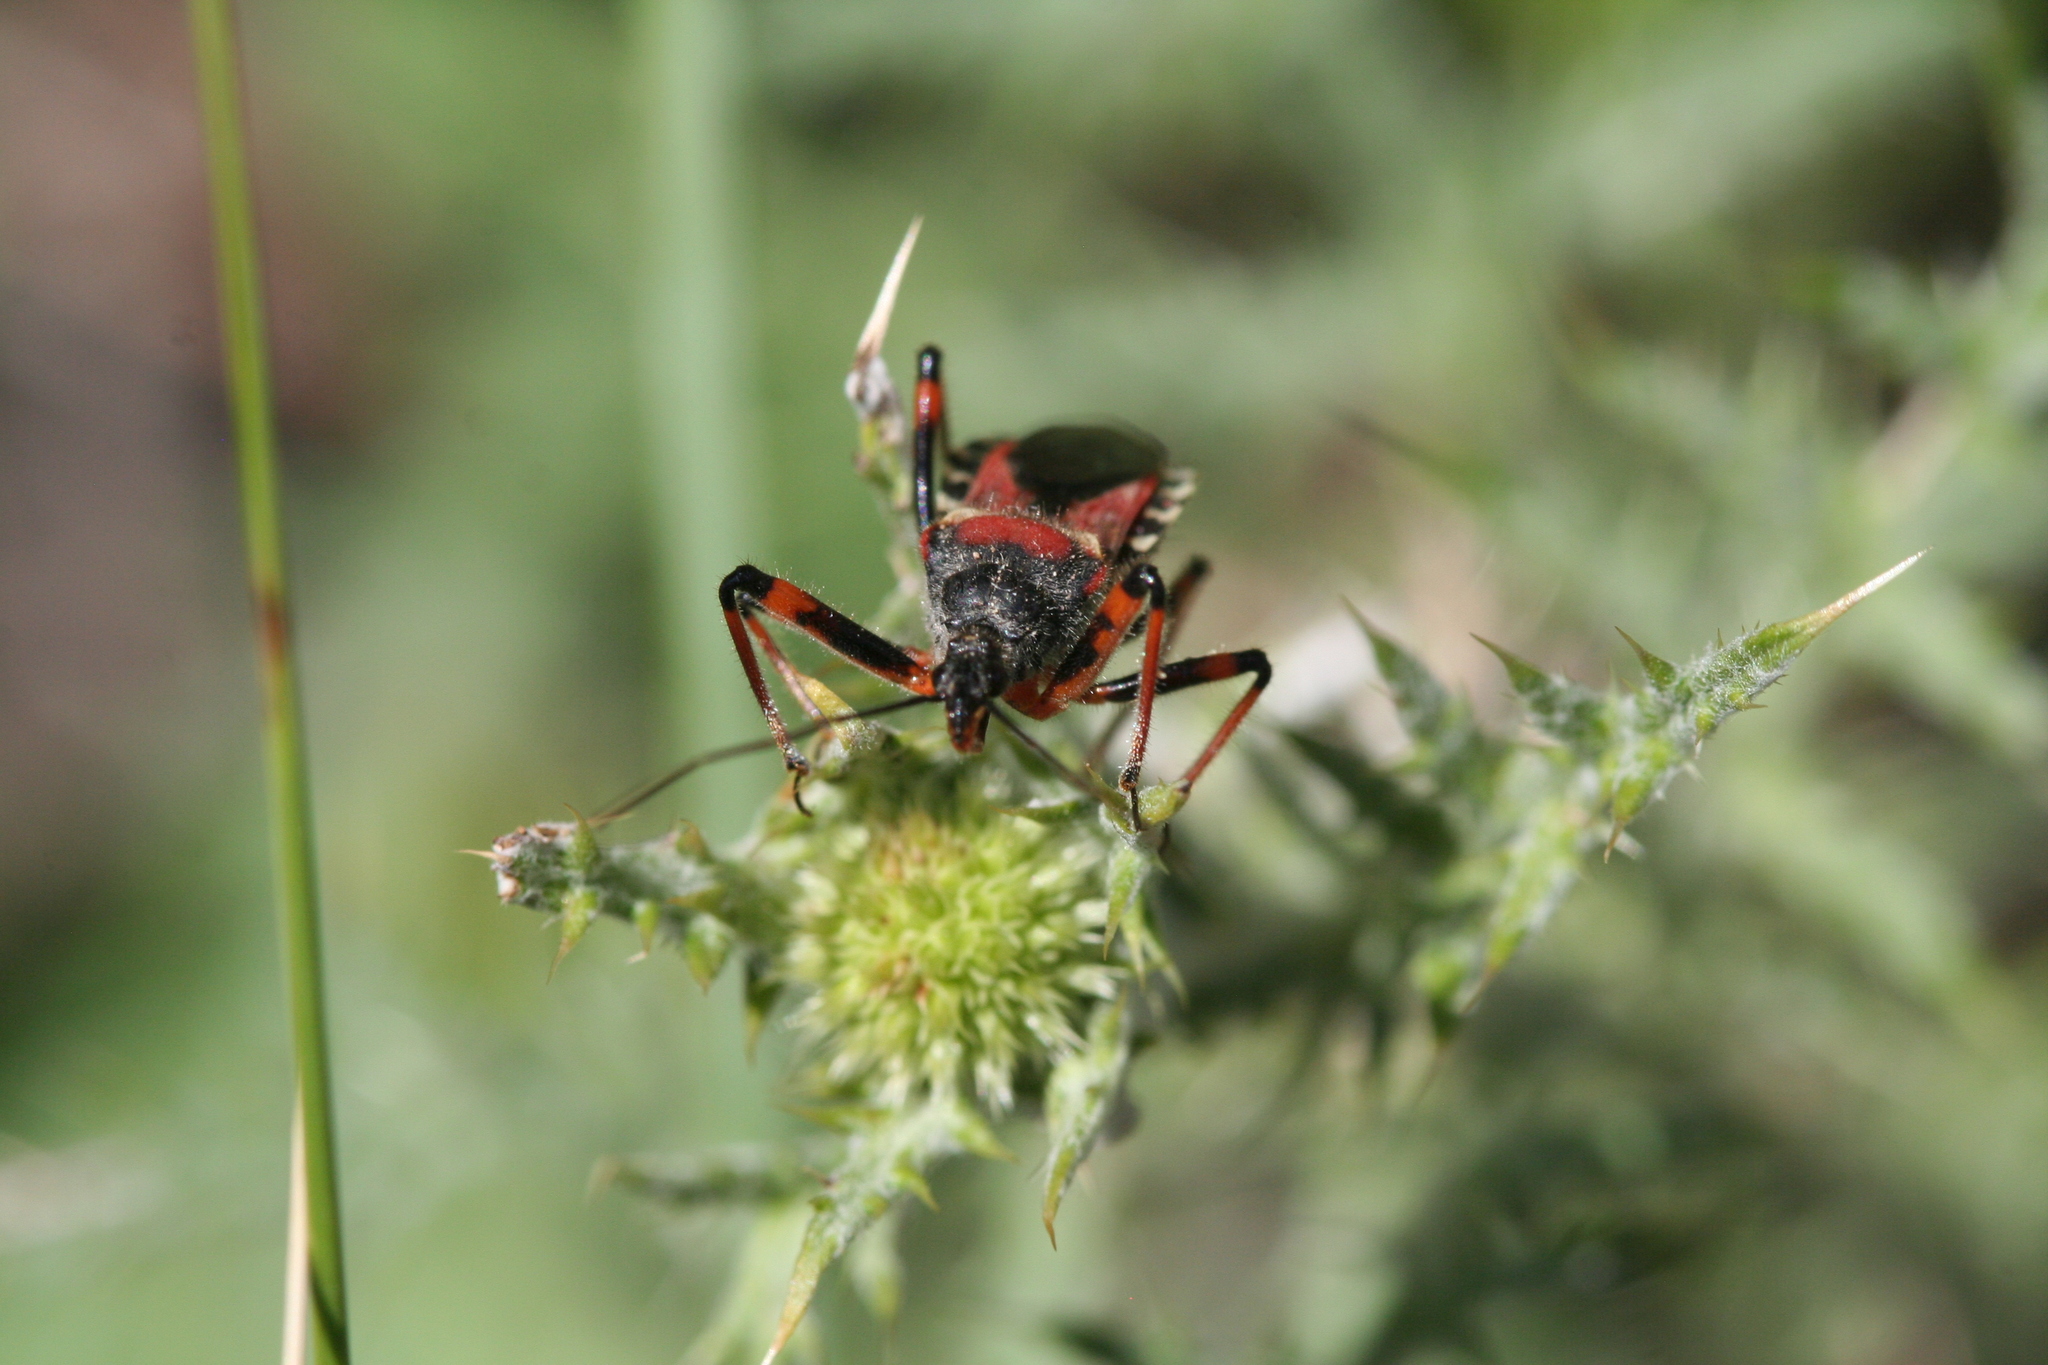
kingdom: Animalia
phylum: Arthropoda
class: Insecta
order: Hemiptera
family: Reduviidae
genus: Rhynocoris
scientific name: Rhynocoris iracundus
